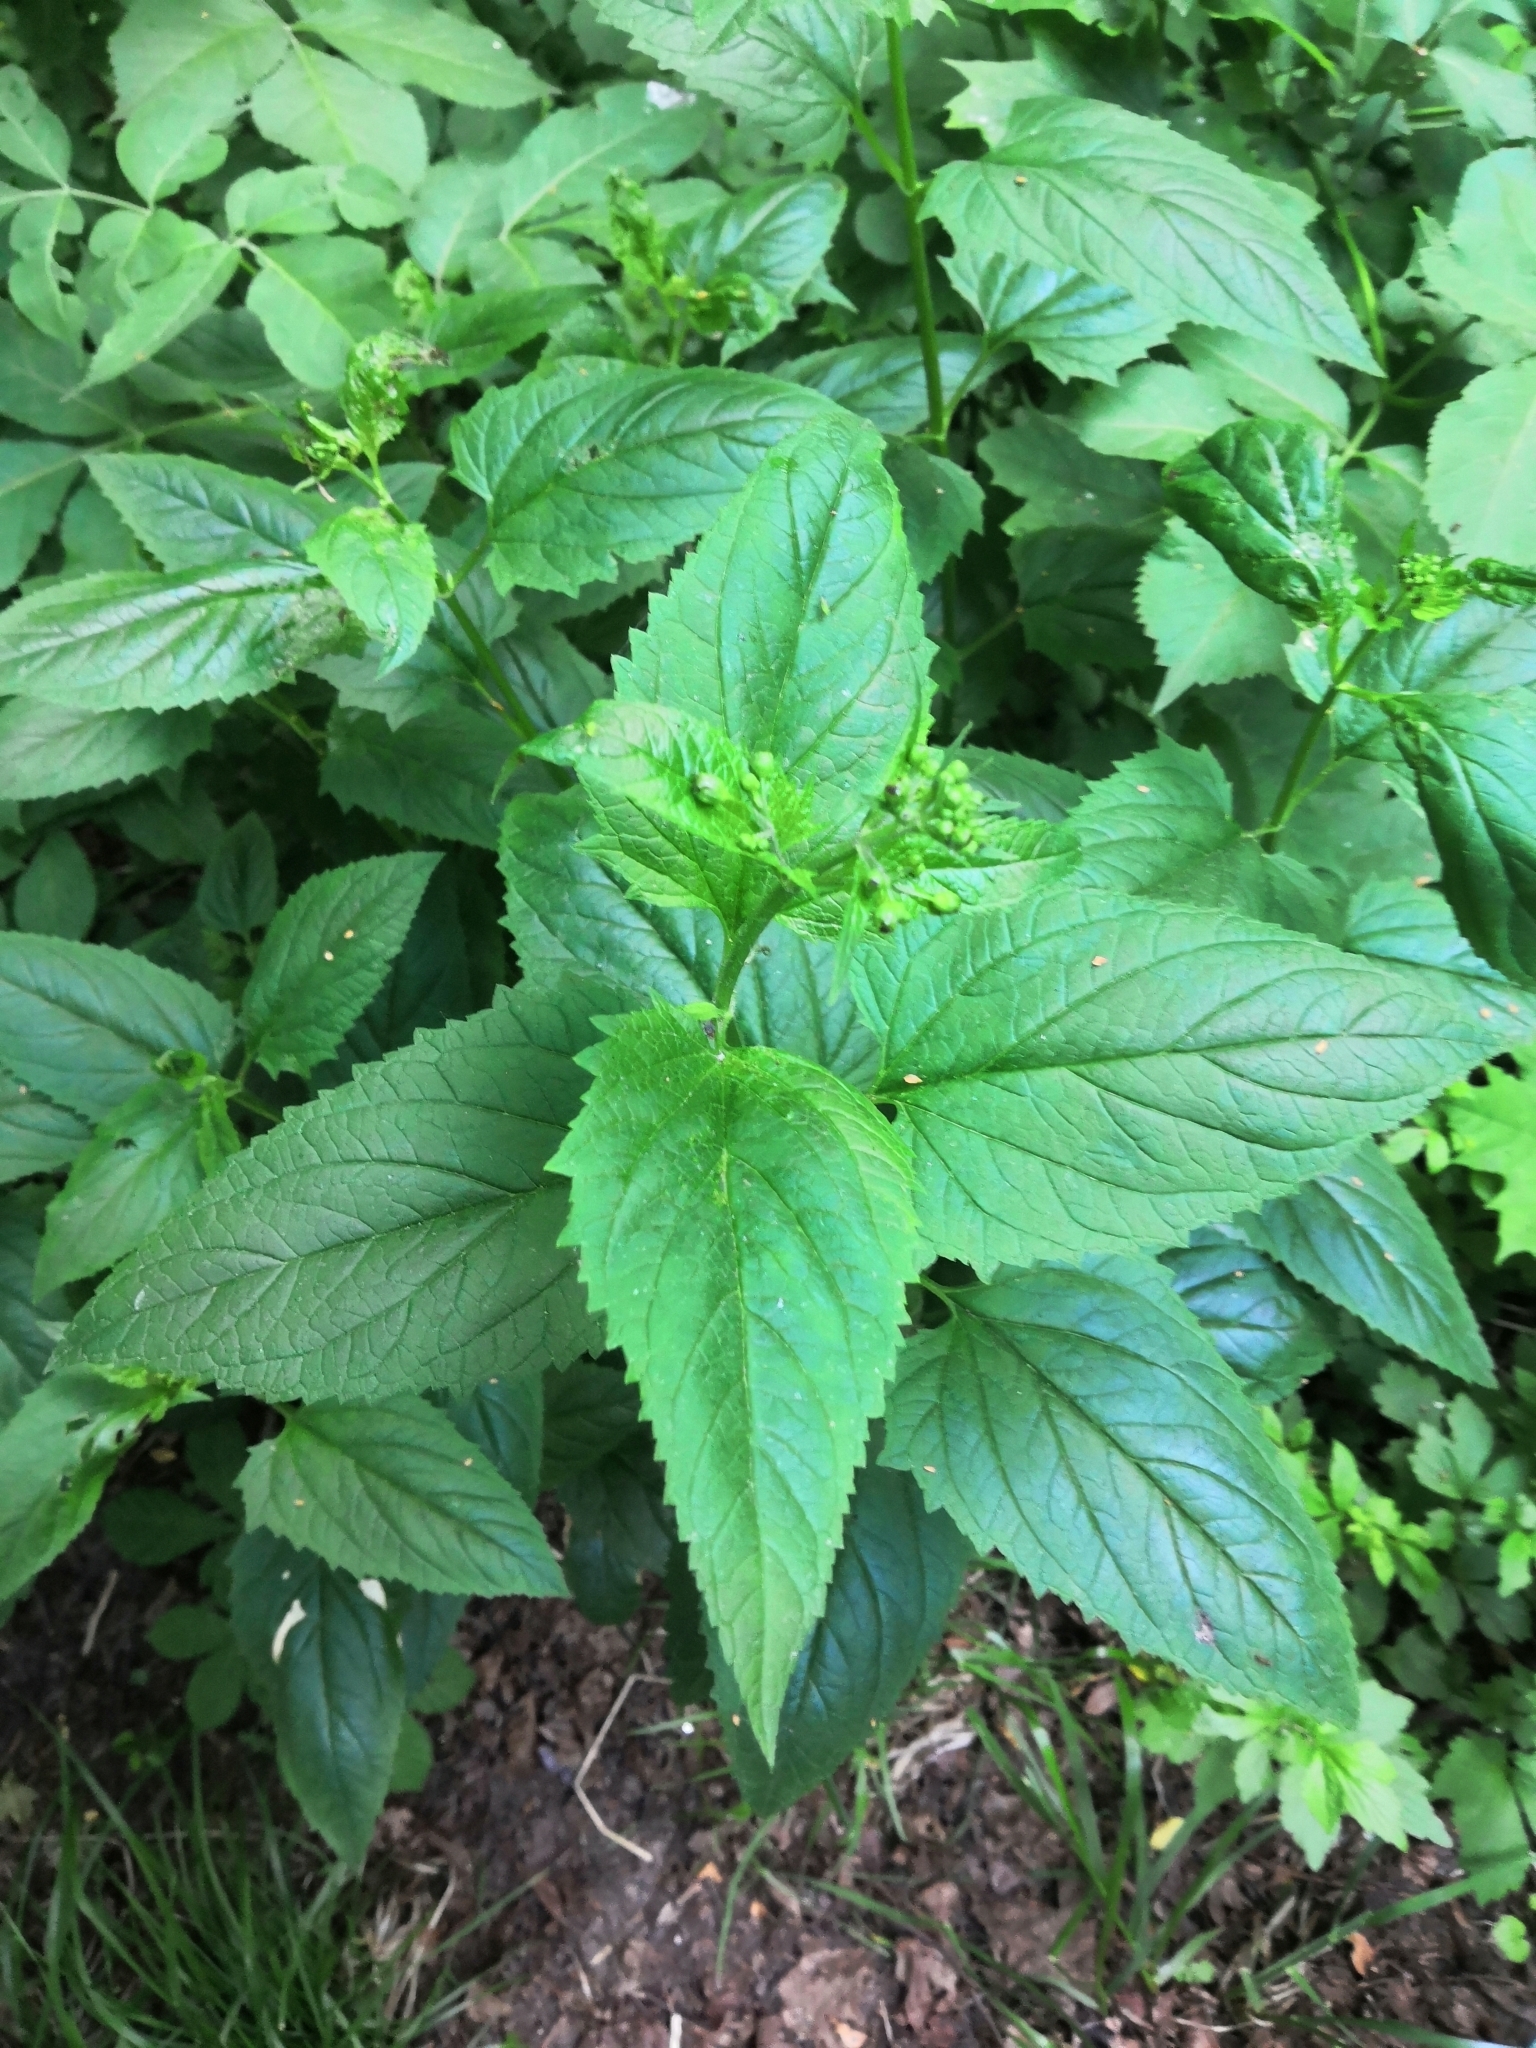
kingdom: Plantae
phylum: Tracheophyta
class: Magnoliopsida
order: Lamiales
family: Scrophulariaceae
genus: Scrophularia
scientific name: Scrophularia nodosa
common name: Common figwort
